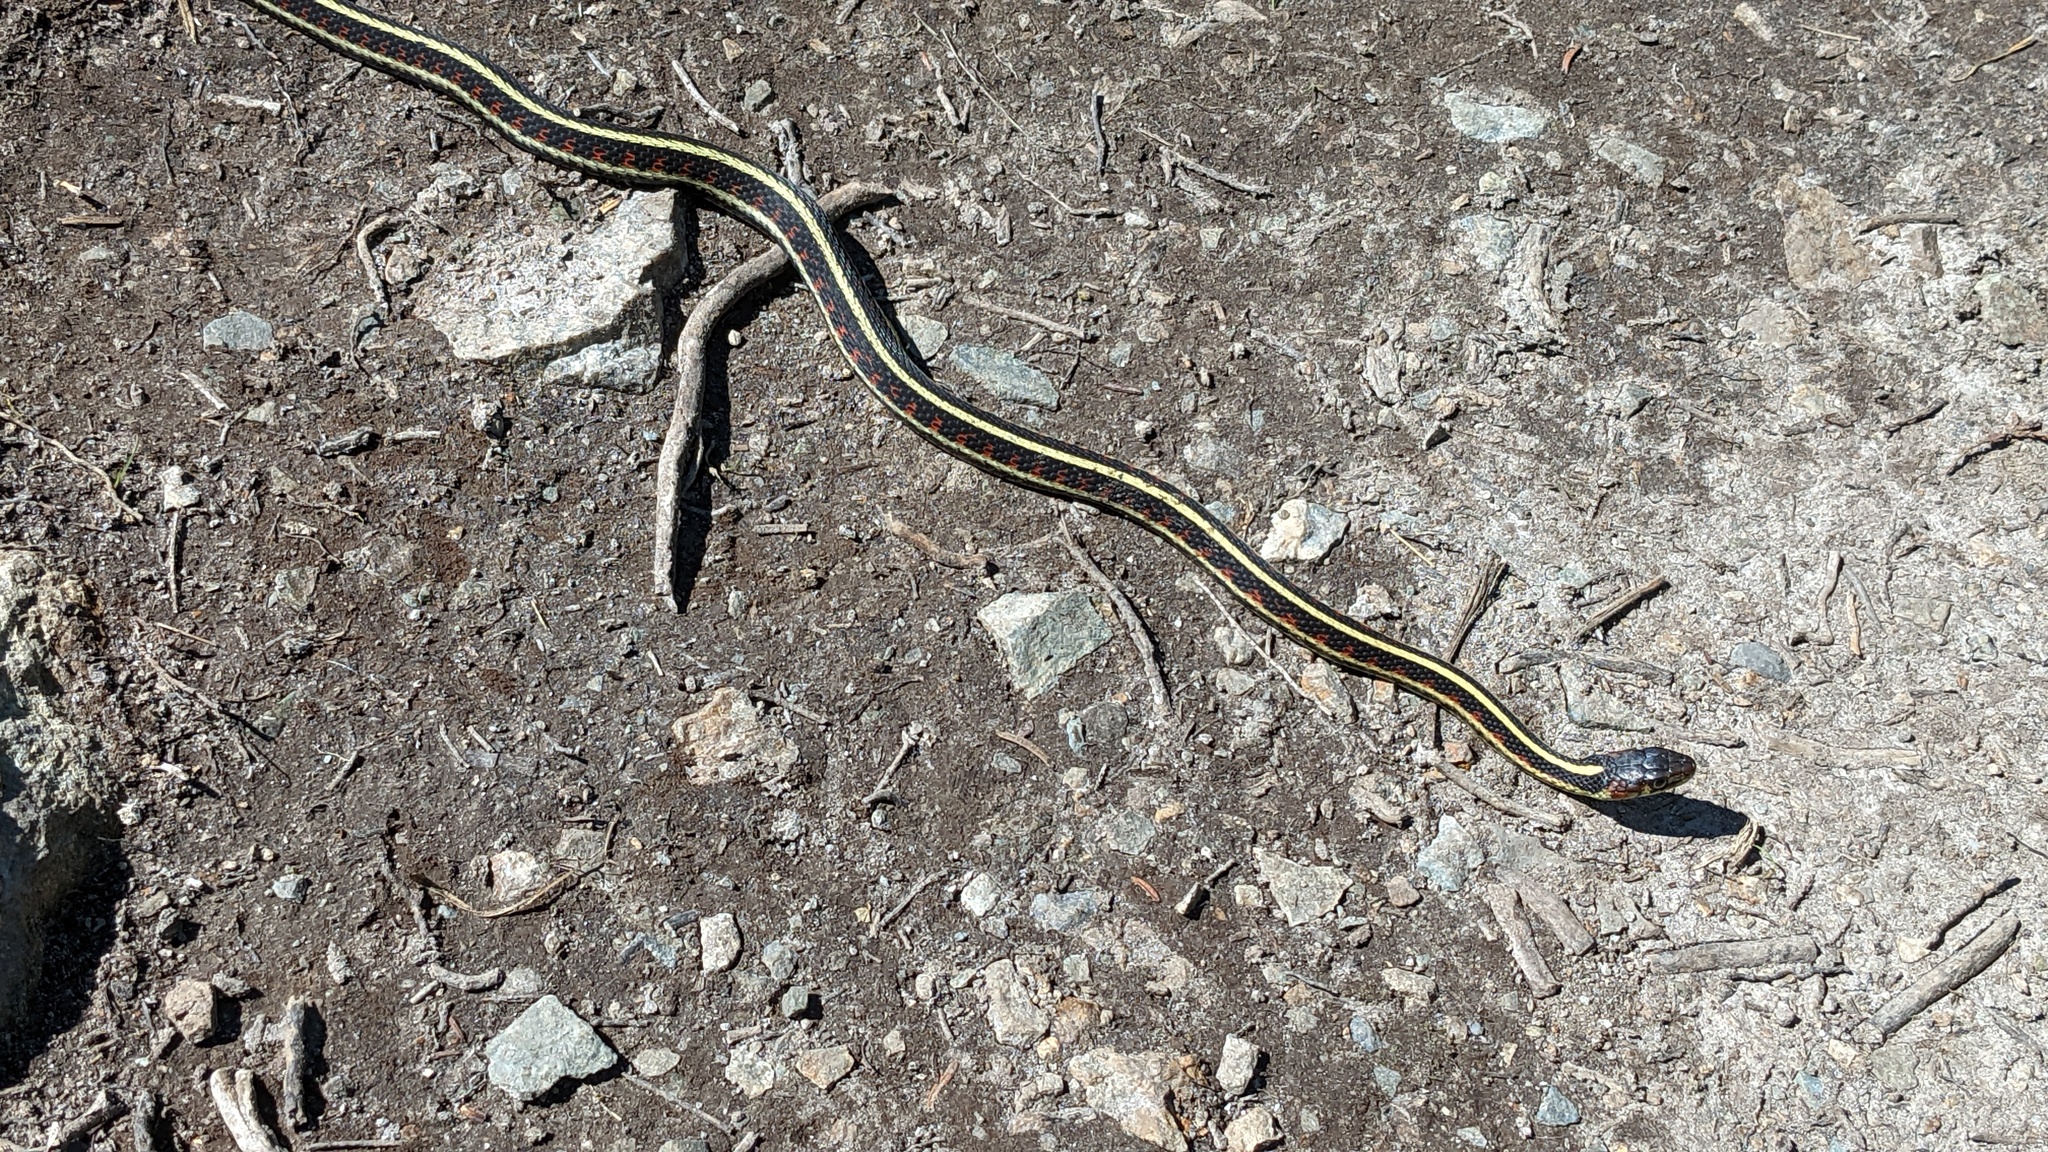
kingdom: Animalia
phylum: Chordata
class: Squamata
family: Colubridae
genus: Thamnophis
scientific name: Thamnophis sirtalis
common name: Common garter snake
